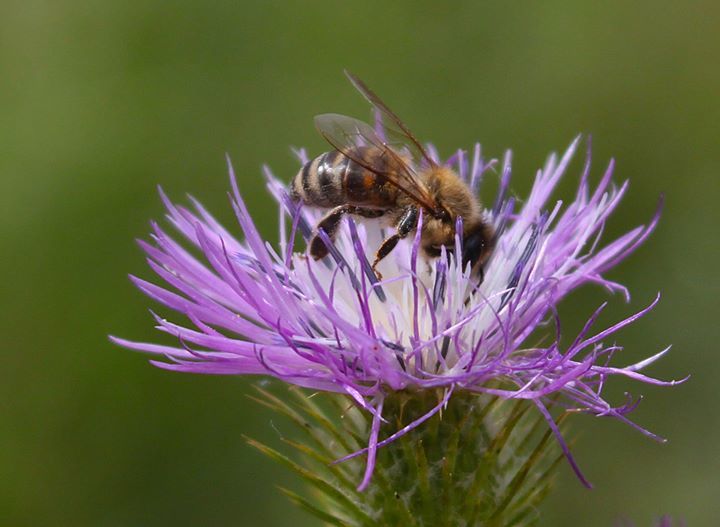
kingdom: Animalia
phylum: Arthropoda
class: Insecta
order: Hymenoptera
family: Apidae
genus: Apis
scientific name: Apis mellifera
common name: Honey bee
